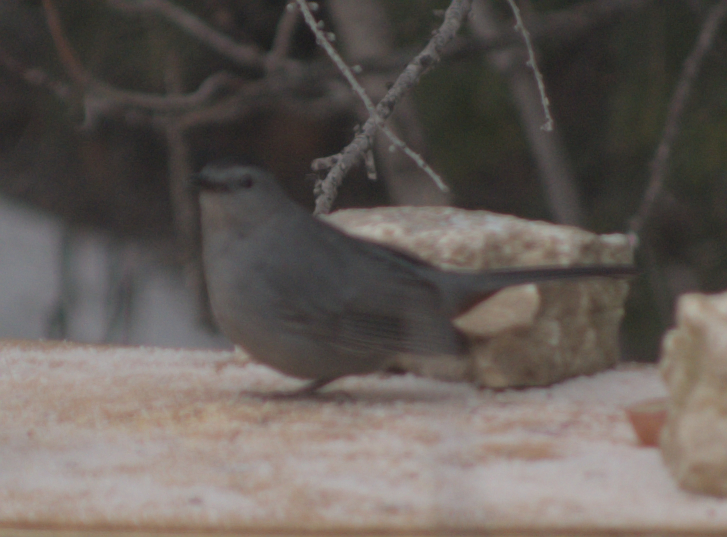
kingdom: Animalia
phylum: Chordata
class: Aves
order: Passeriformes
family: Mimidae
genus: Dumetella
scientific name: Dumetella carolinensis
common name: Gray catbird
